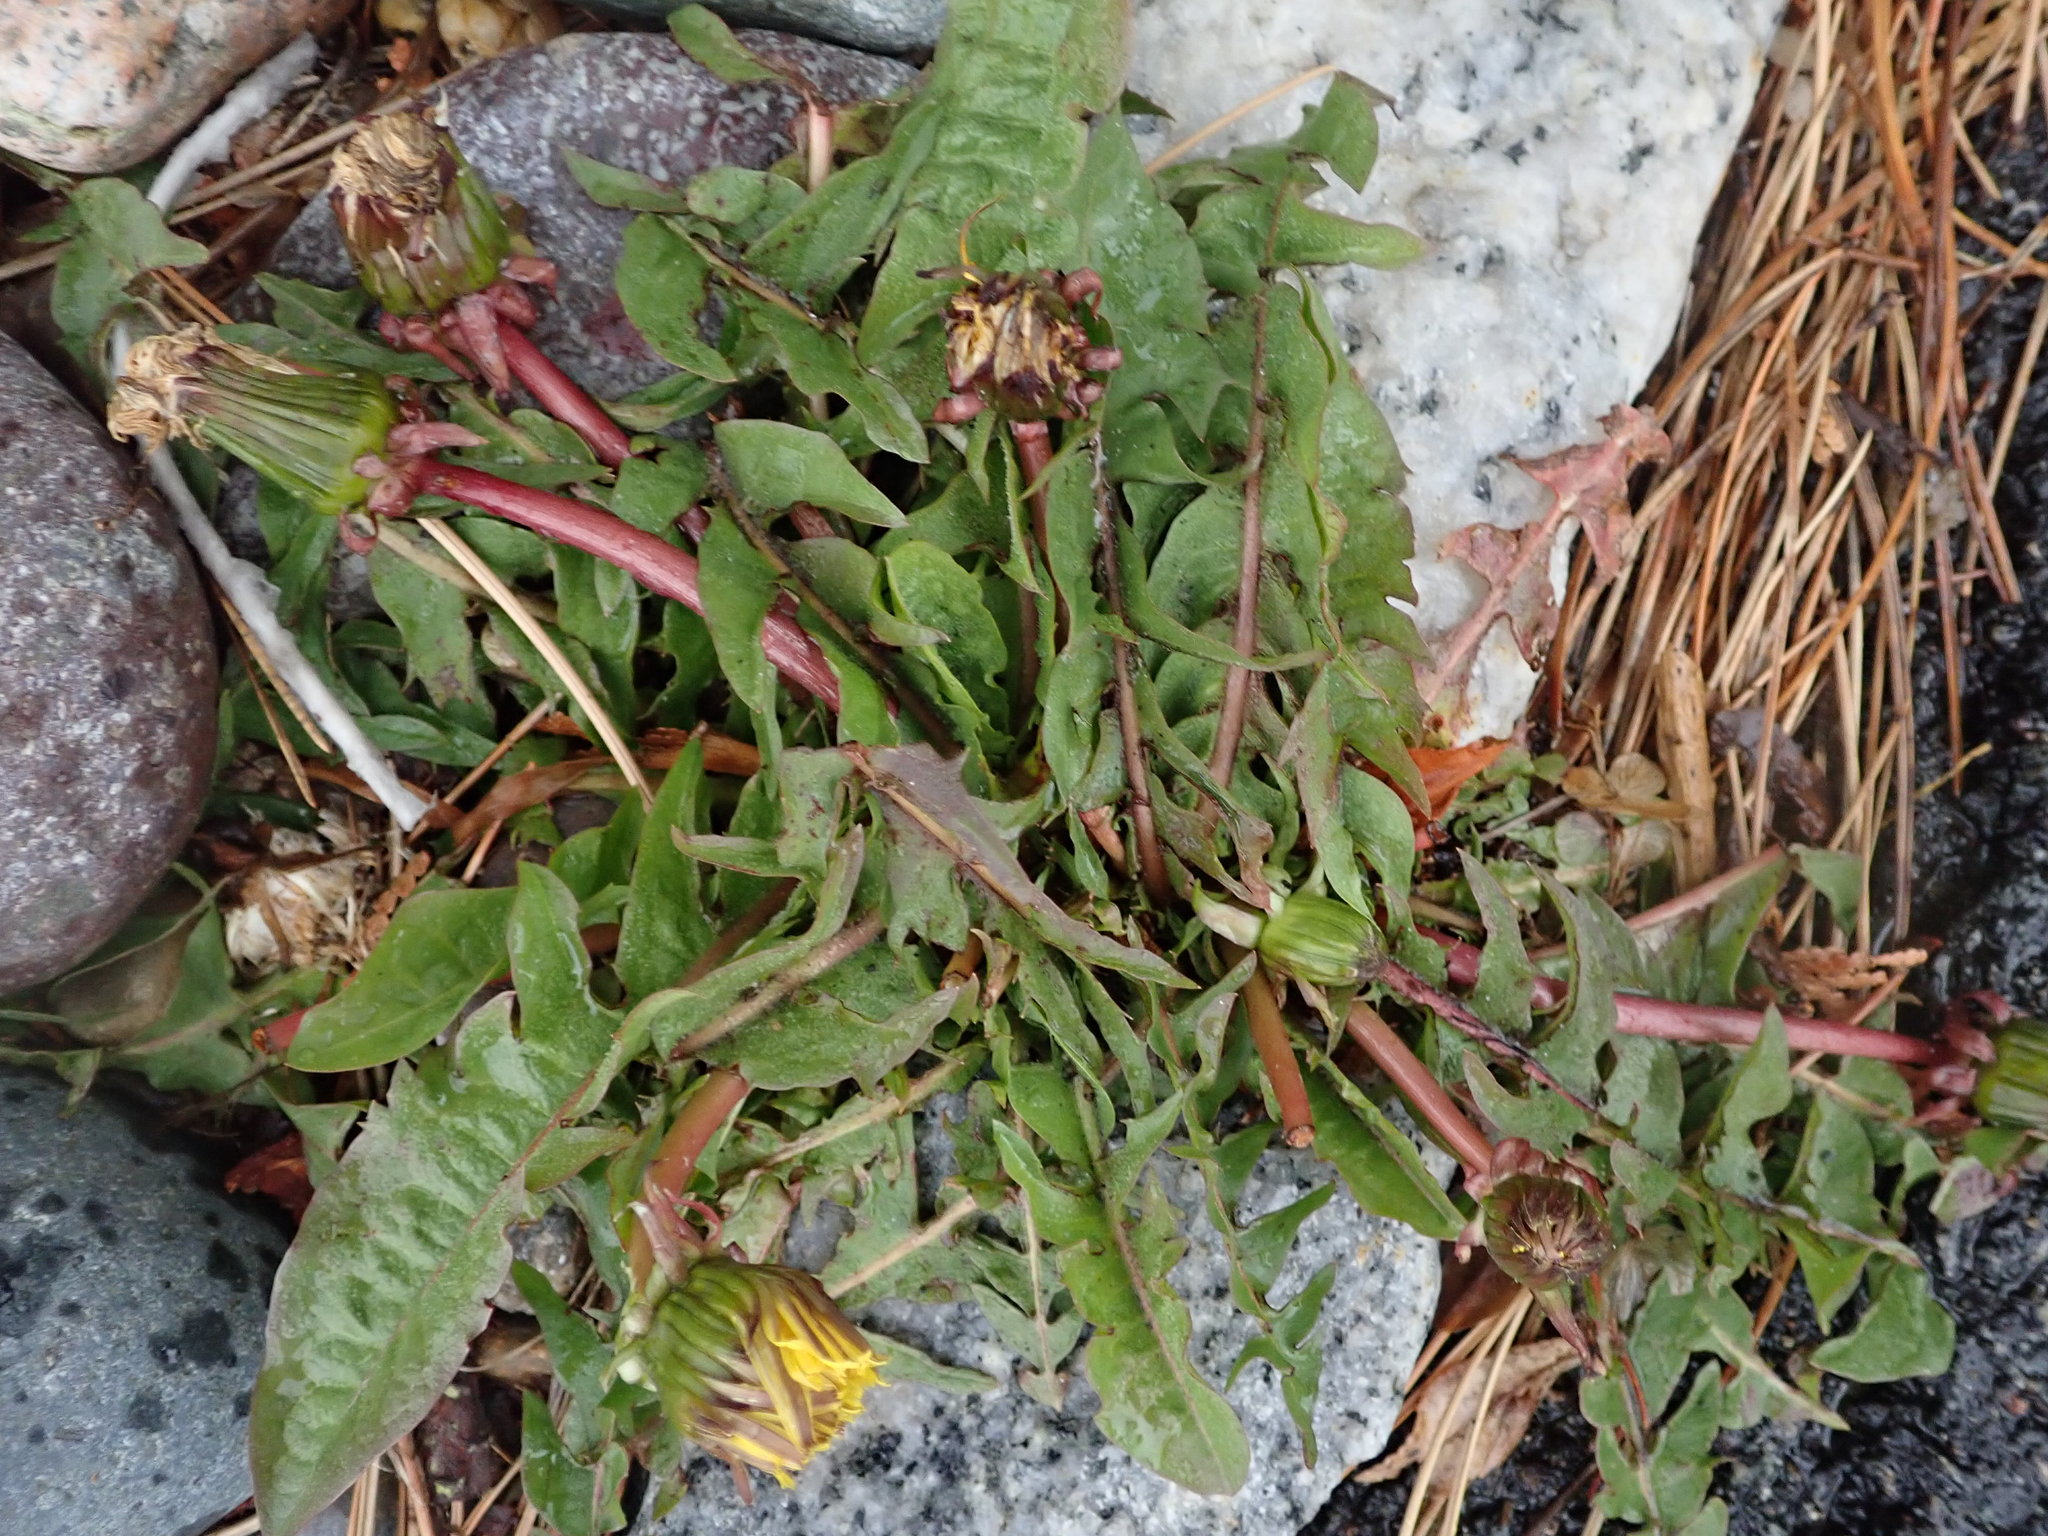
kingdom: Plantae
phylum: Tracheophyta
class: Magnoliopsida
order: Asterales
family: Asteraceae
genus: Taraxacum
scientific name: Taraxacum
